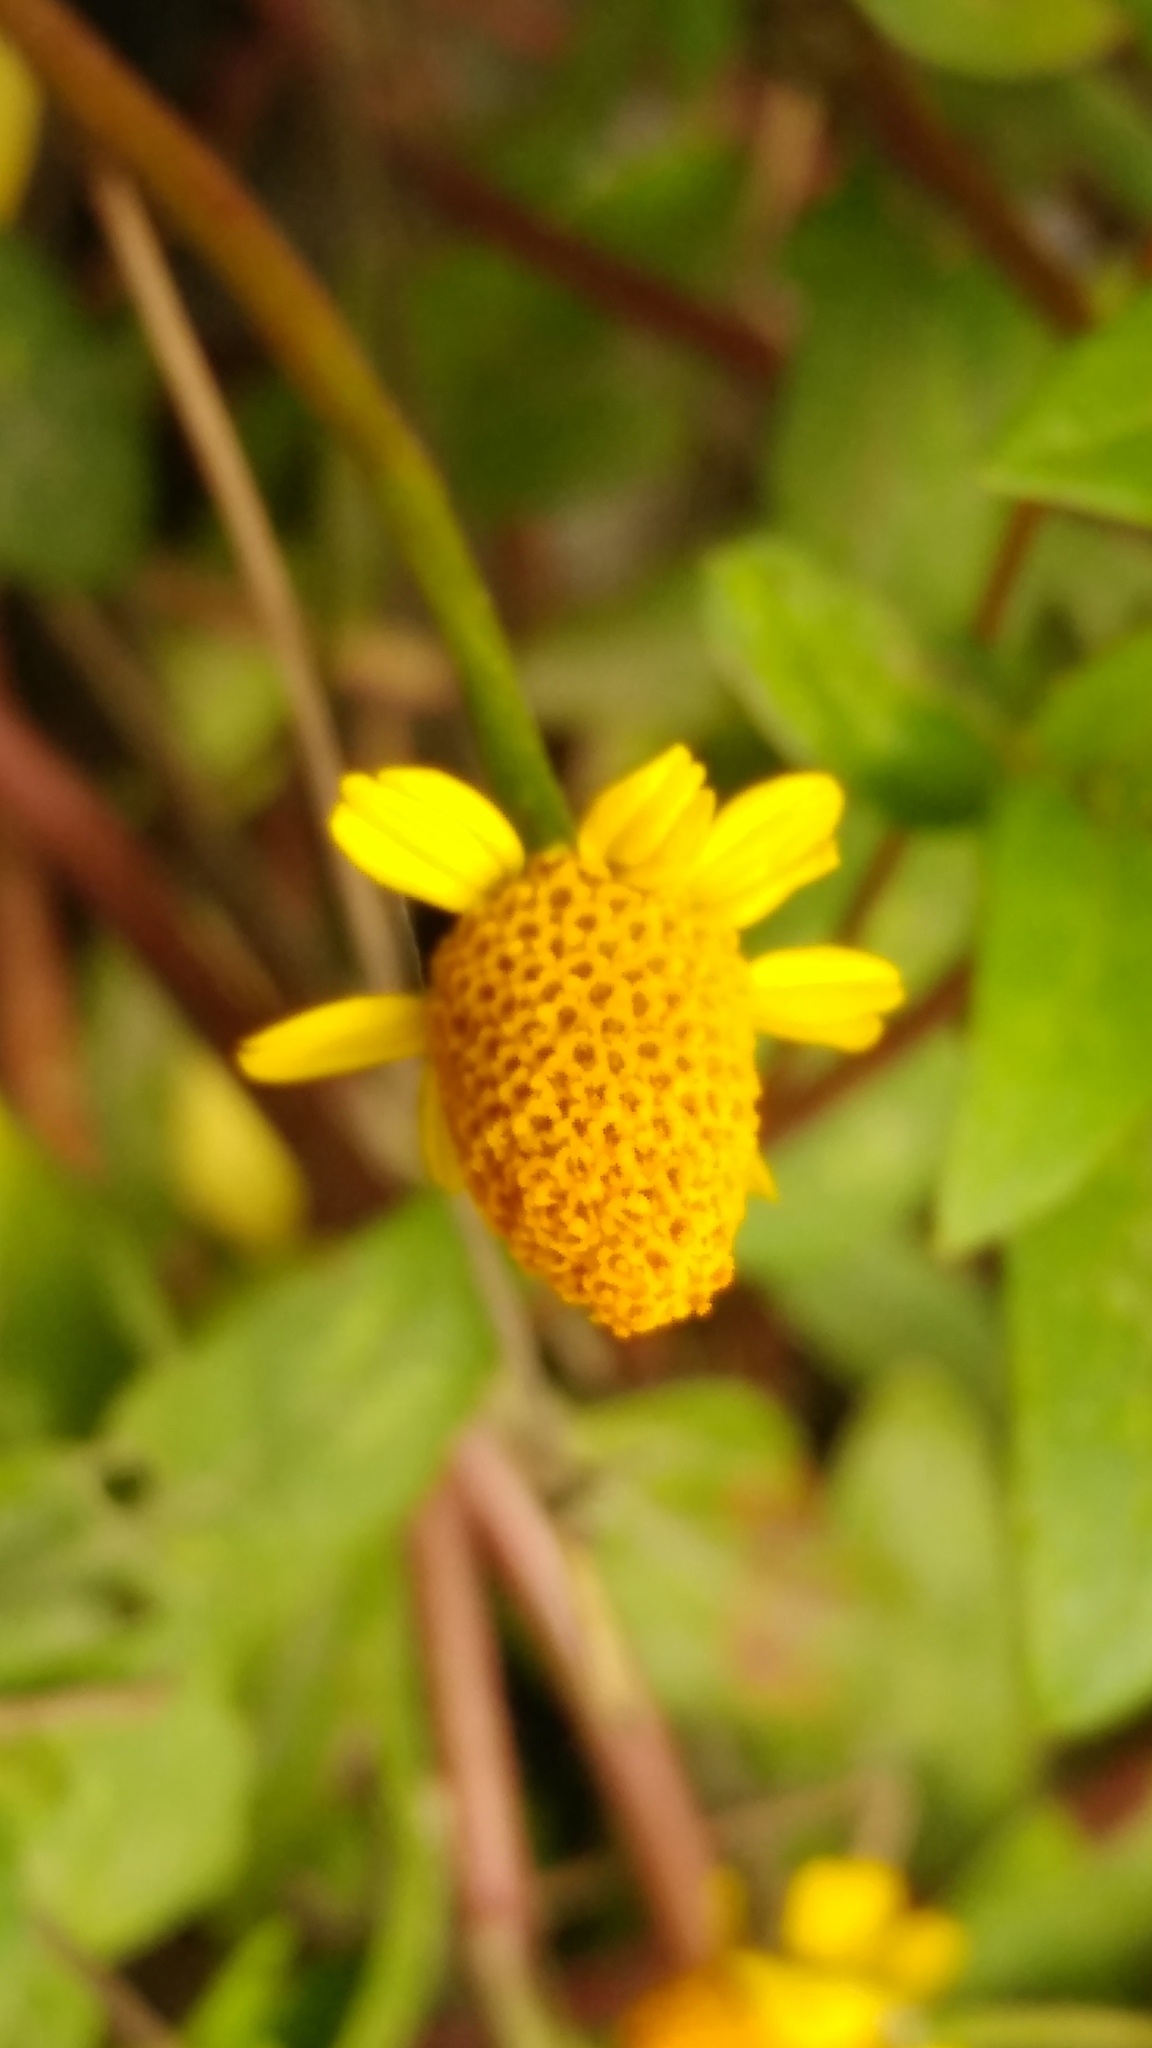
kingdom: Plantae
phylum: Tracheophyta
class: Magnoliopsida
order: Asterales
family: Asteraceae
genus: Acmella
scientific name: Acmella repens
